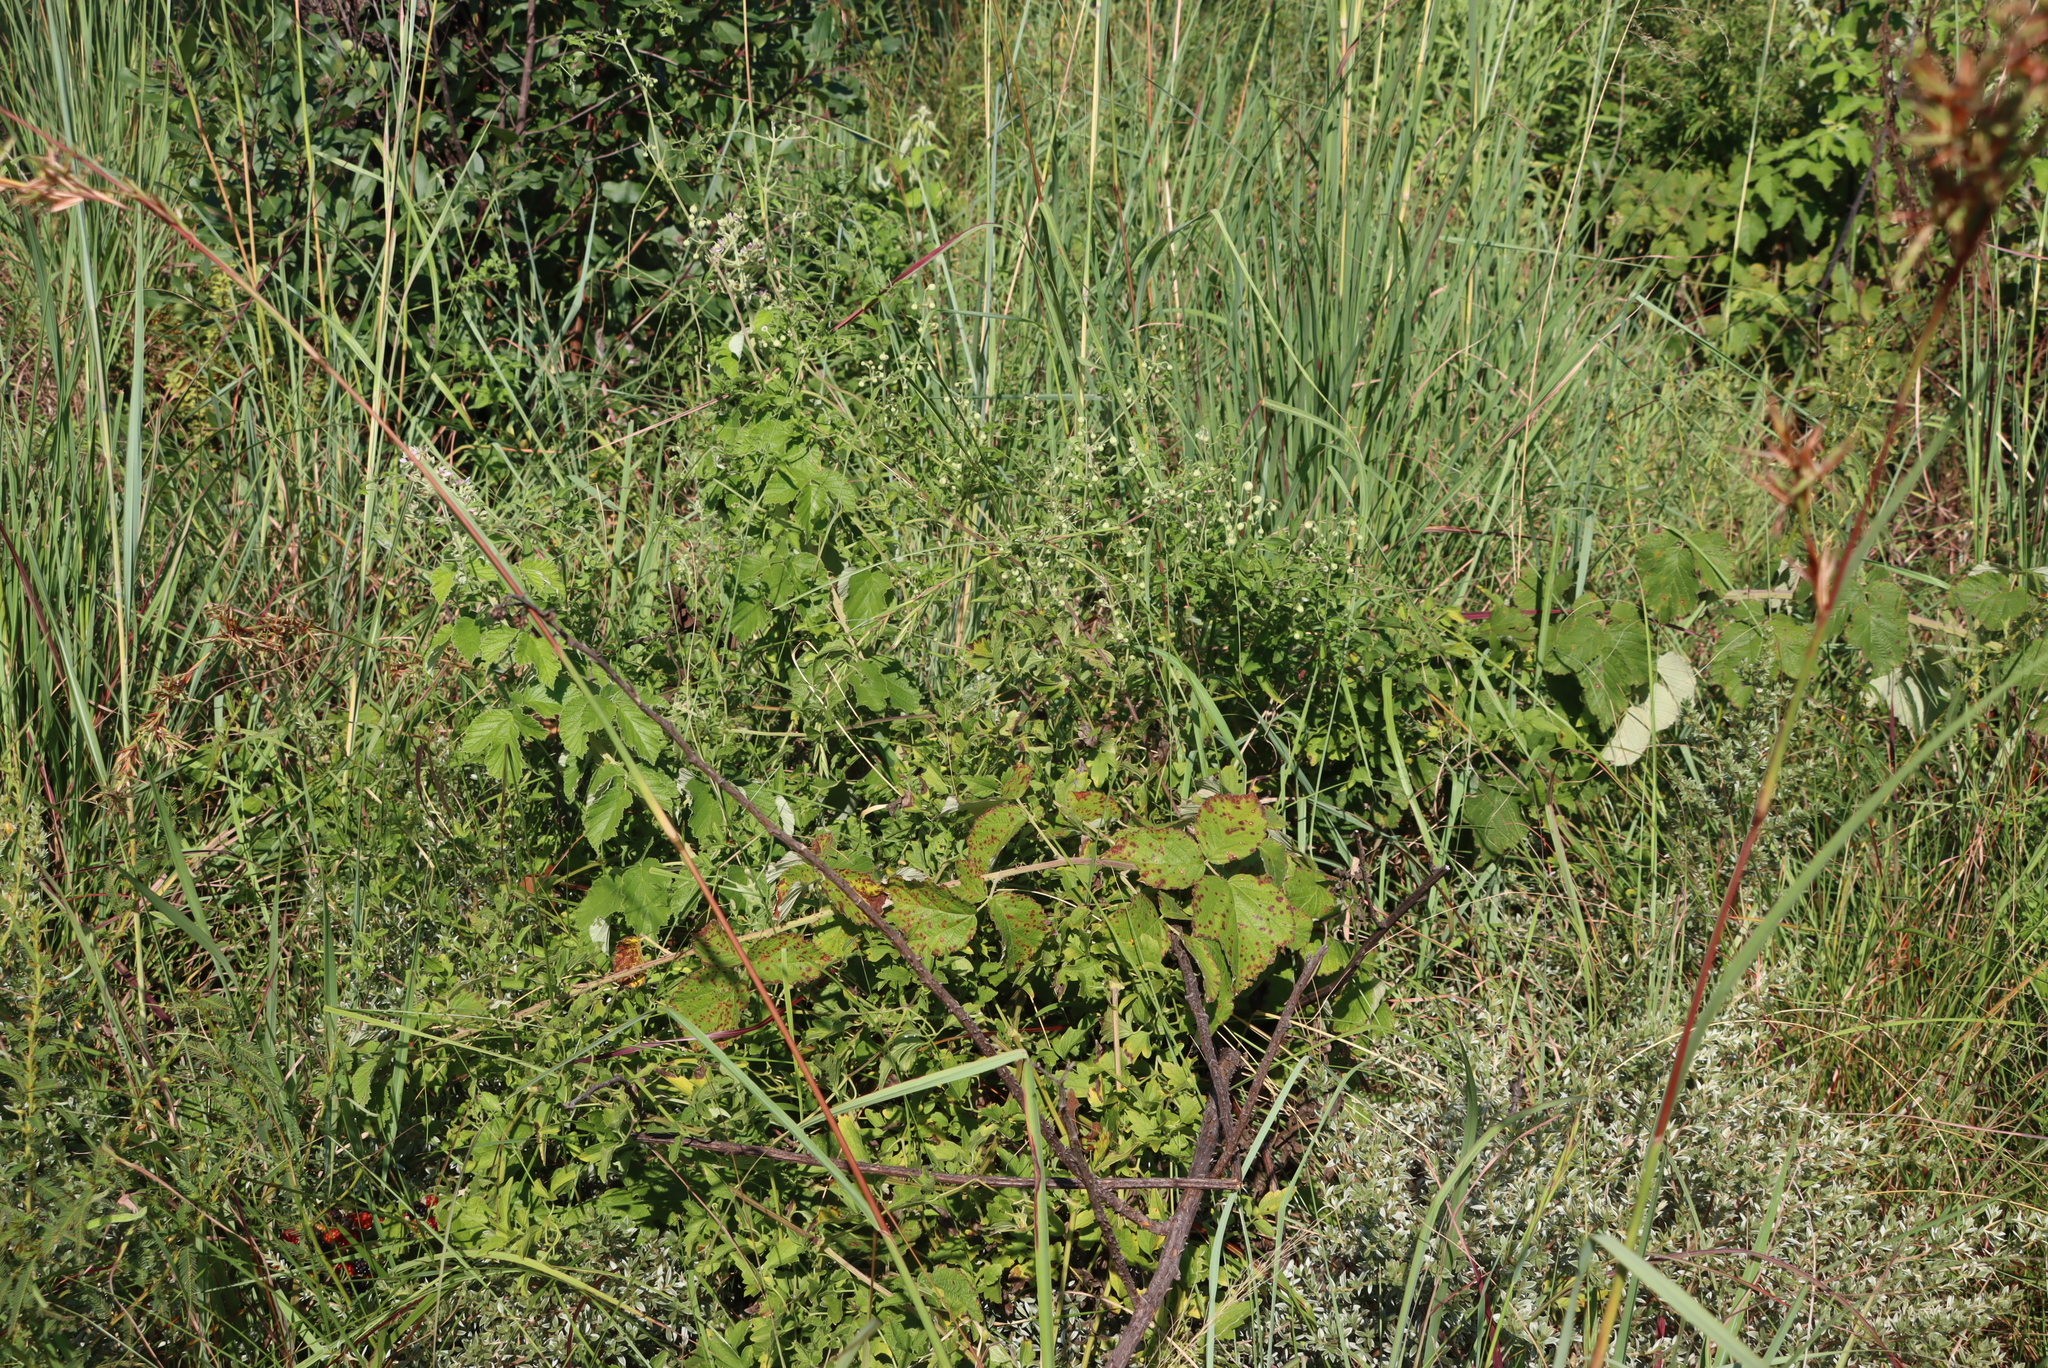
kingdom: Plantae
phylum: Tracheophyta
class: Magnoliopsida
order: Ranunculales
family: Ranunculaceae
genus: Clematis
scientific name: Clematis brachiata
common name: Traveler's-joy
